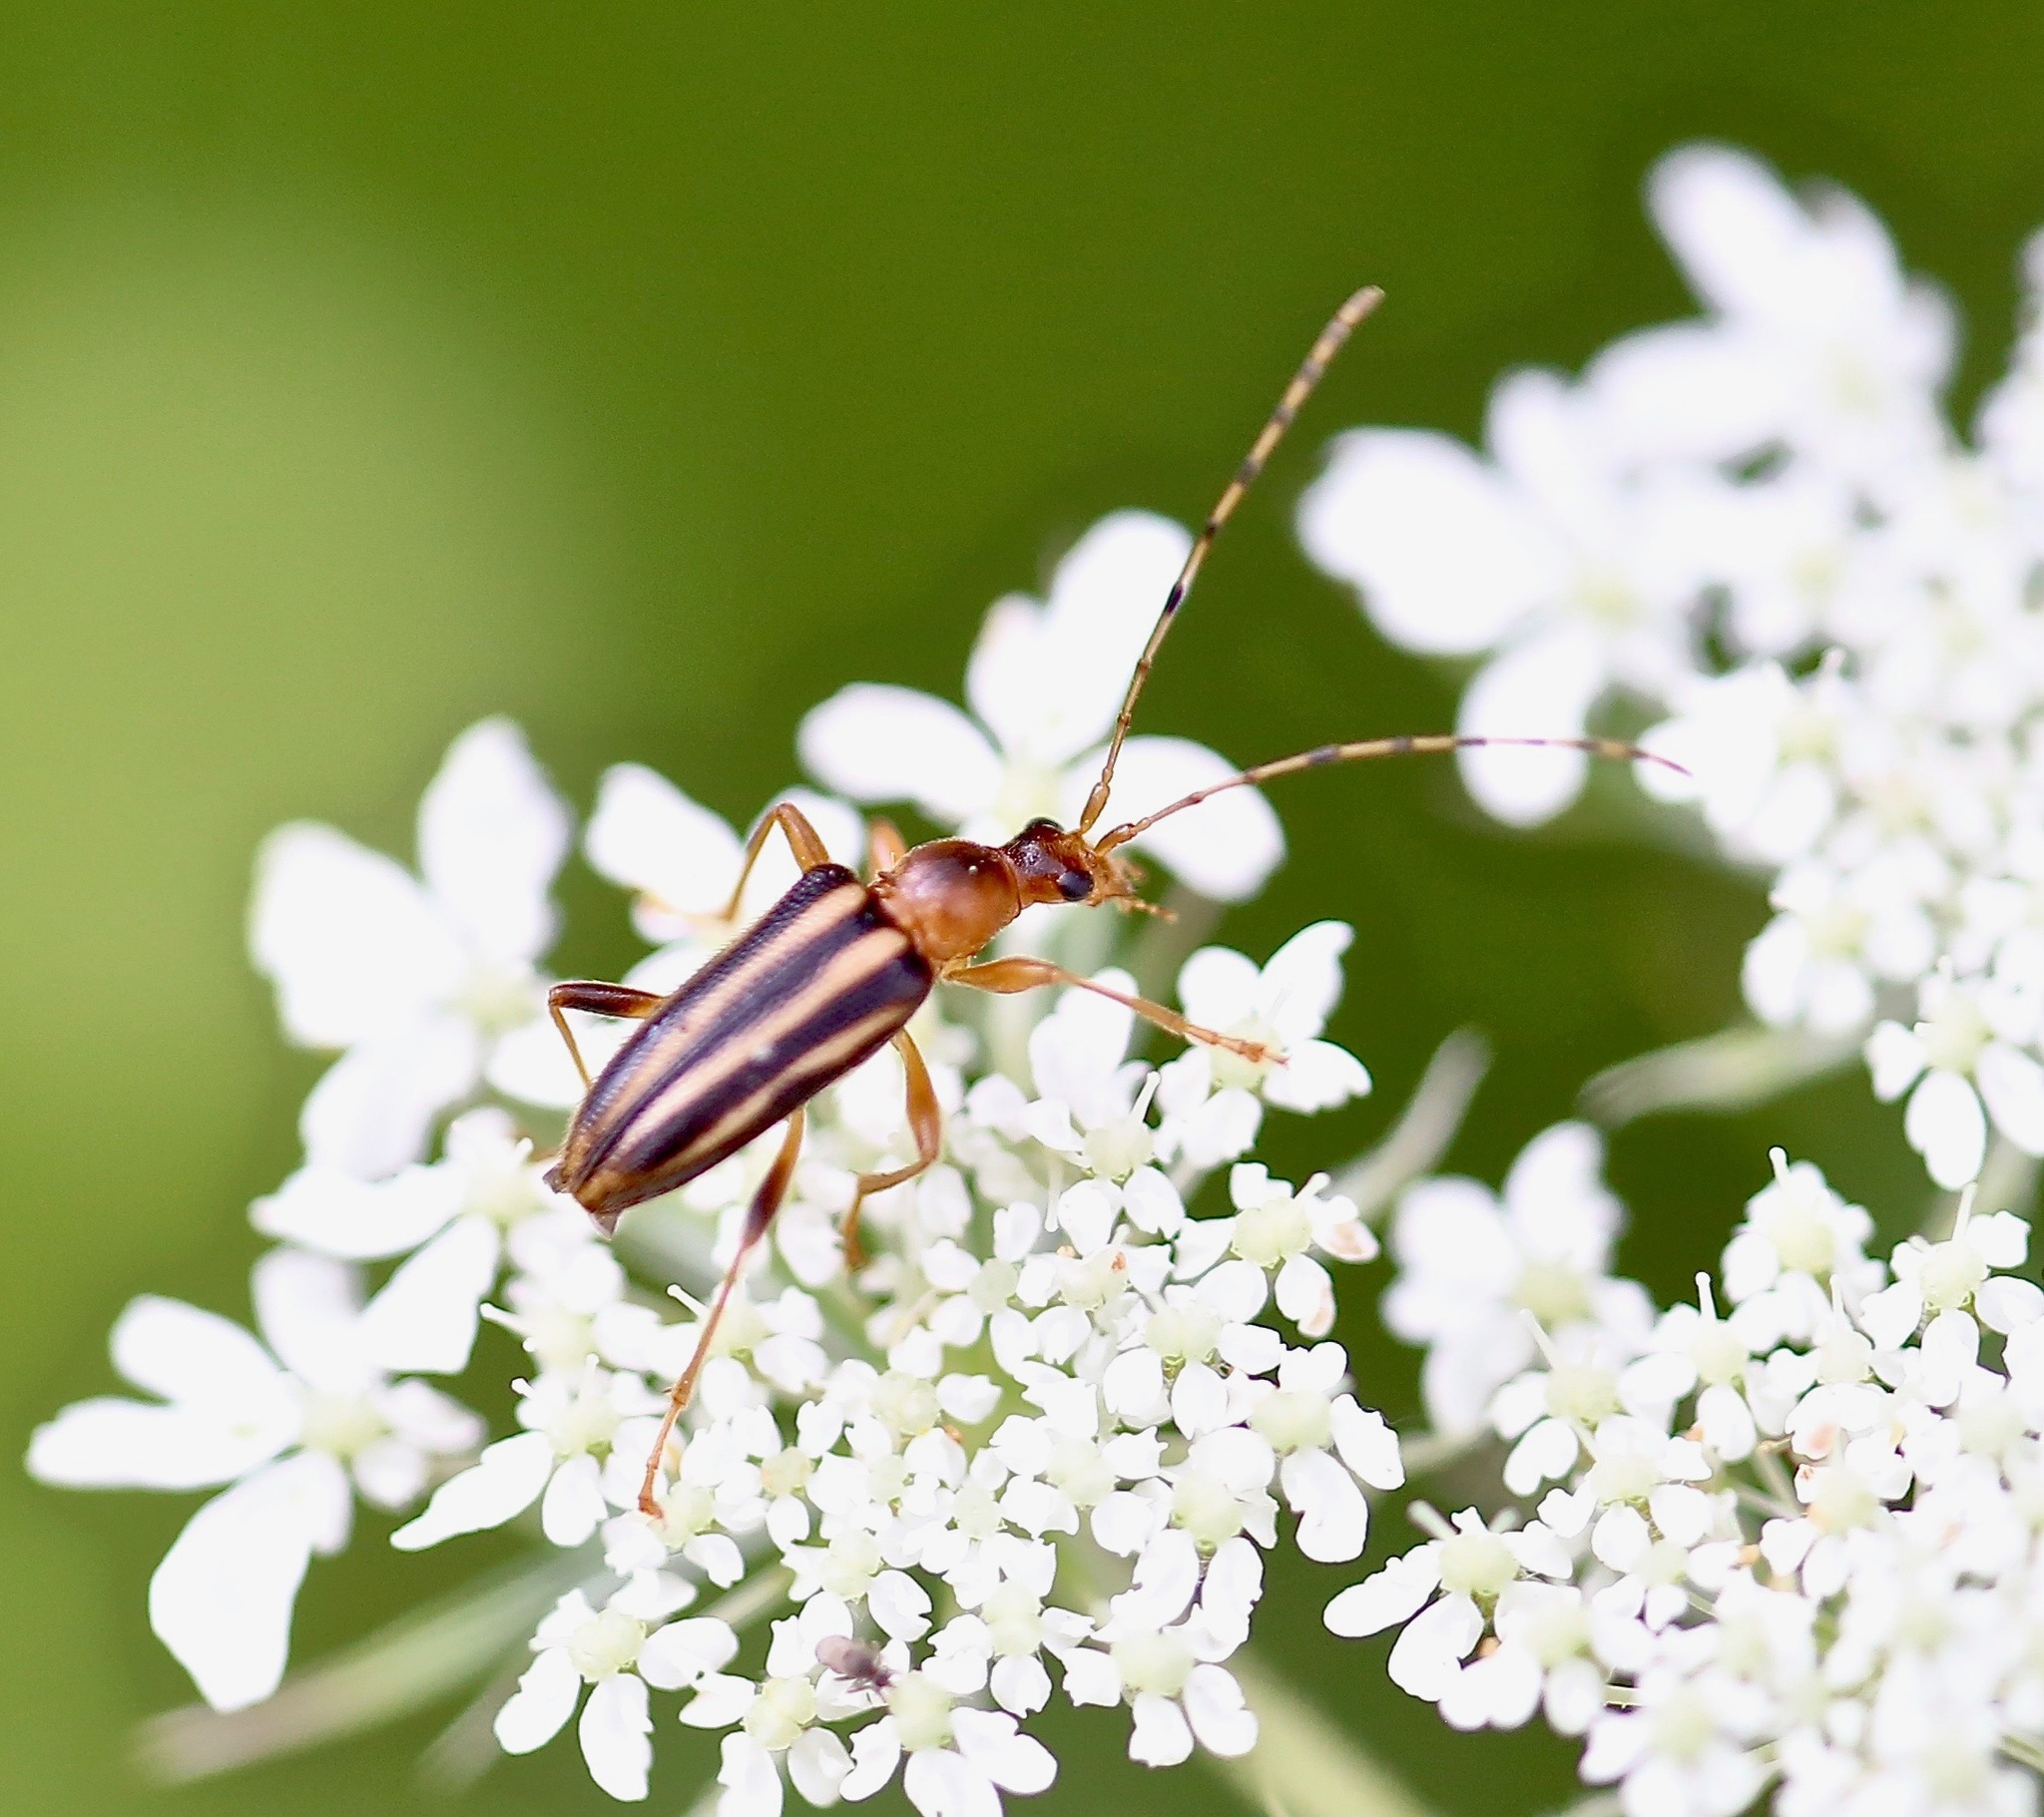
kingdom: Animalia
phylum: Arthropoda
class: Insecta
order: Coleoptera
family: Cerambycidae
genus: Metacmaeops
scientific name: Metacmaeops vittata
